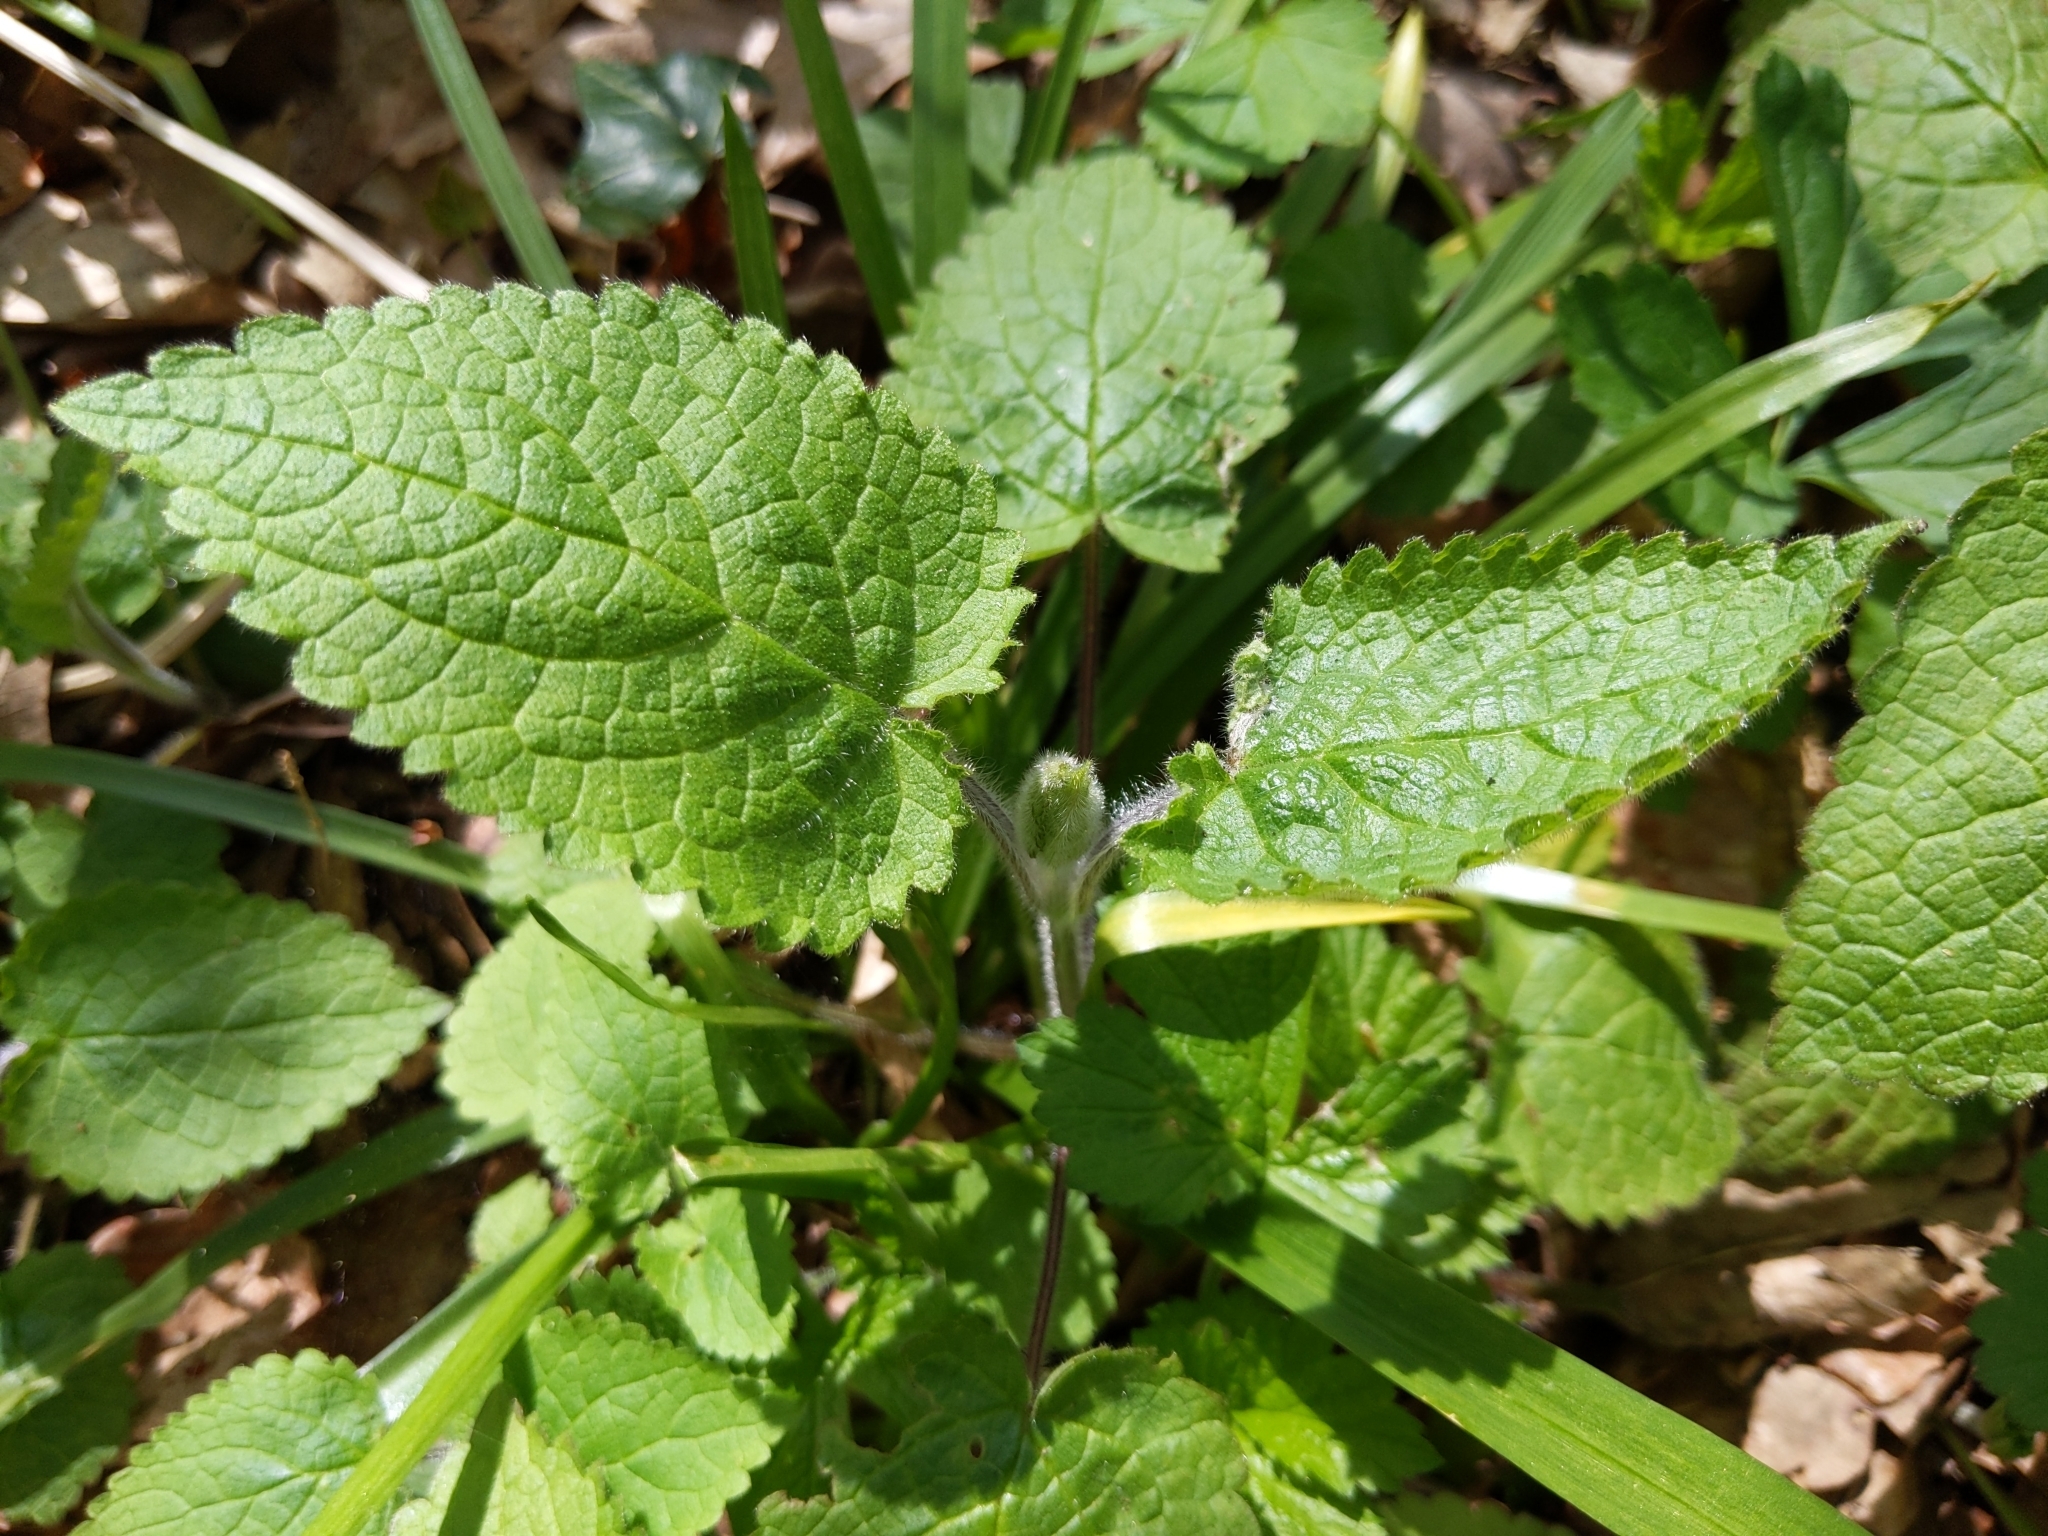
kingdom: Plantae
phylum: Tracheophyta
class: Magnoliopsida
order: Lamiales
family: Lamiaceae
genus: Stachys
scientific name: Stachys sylvatica
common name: Hedge woundwort
